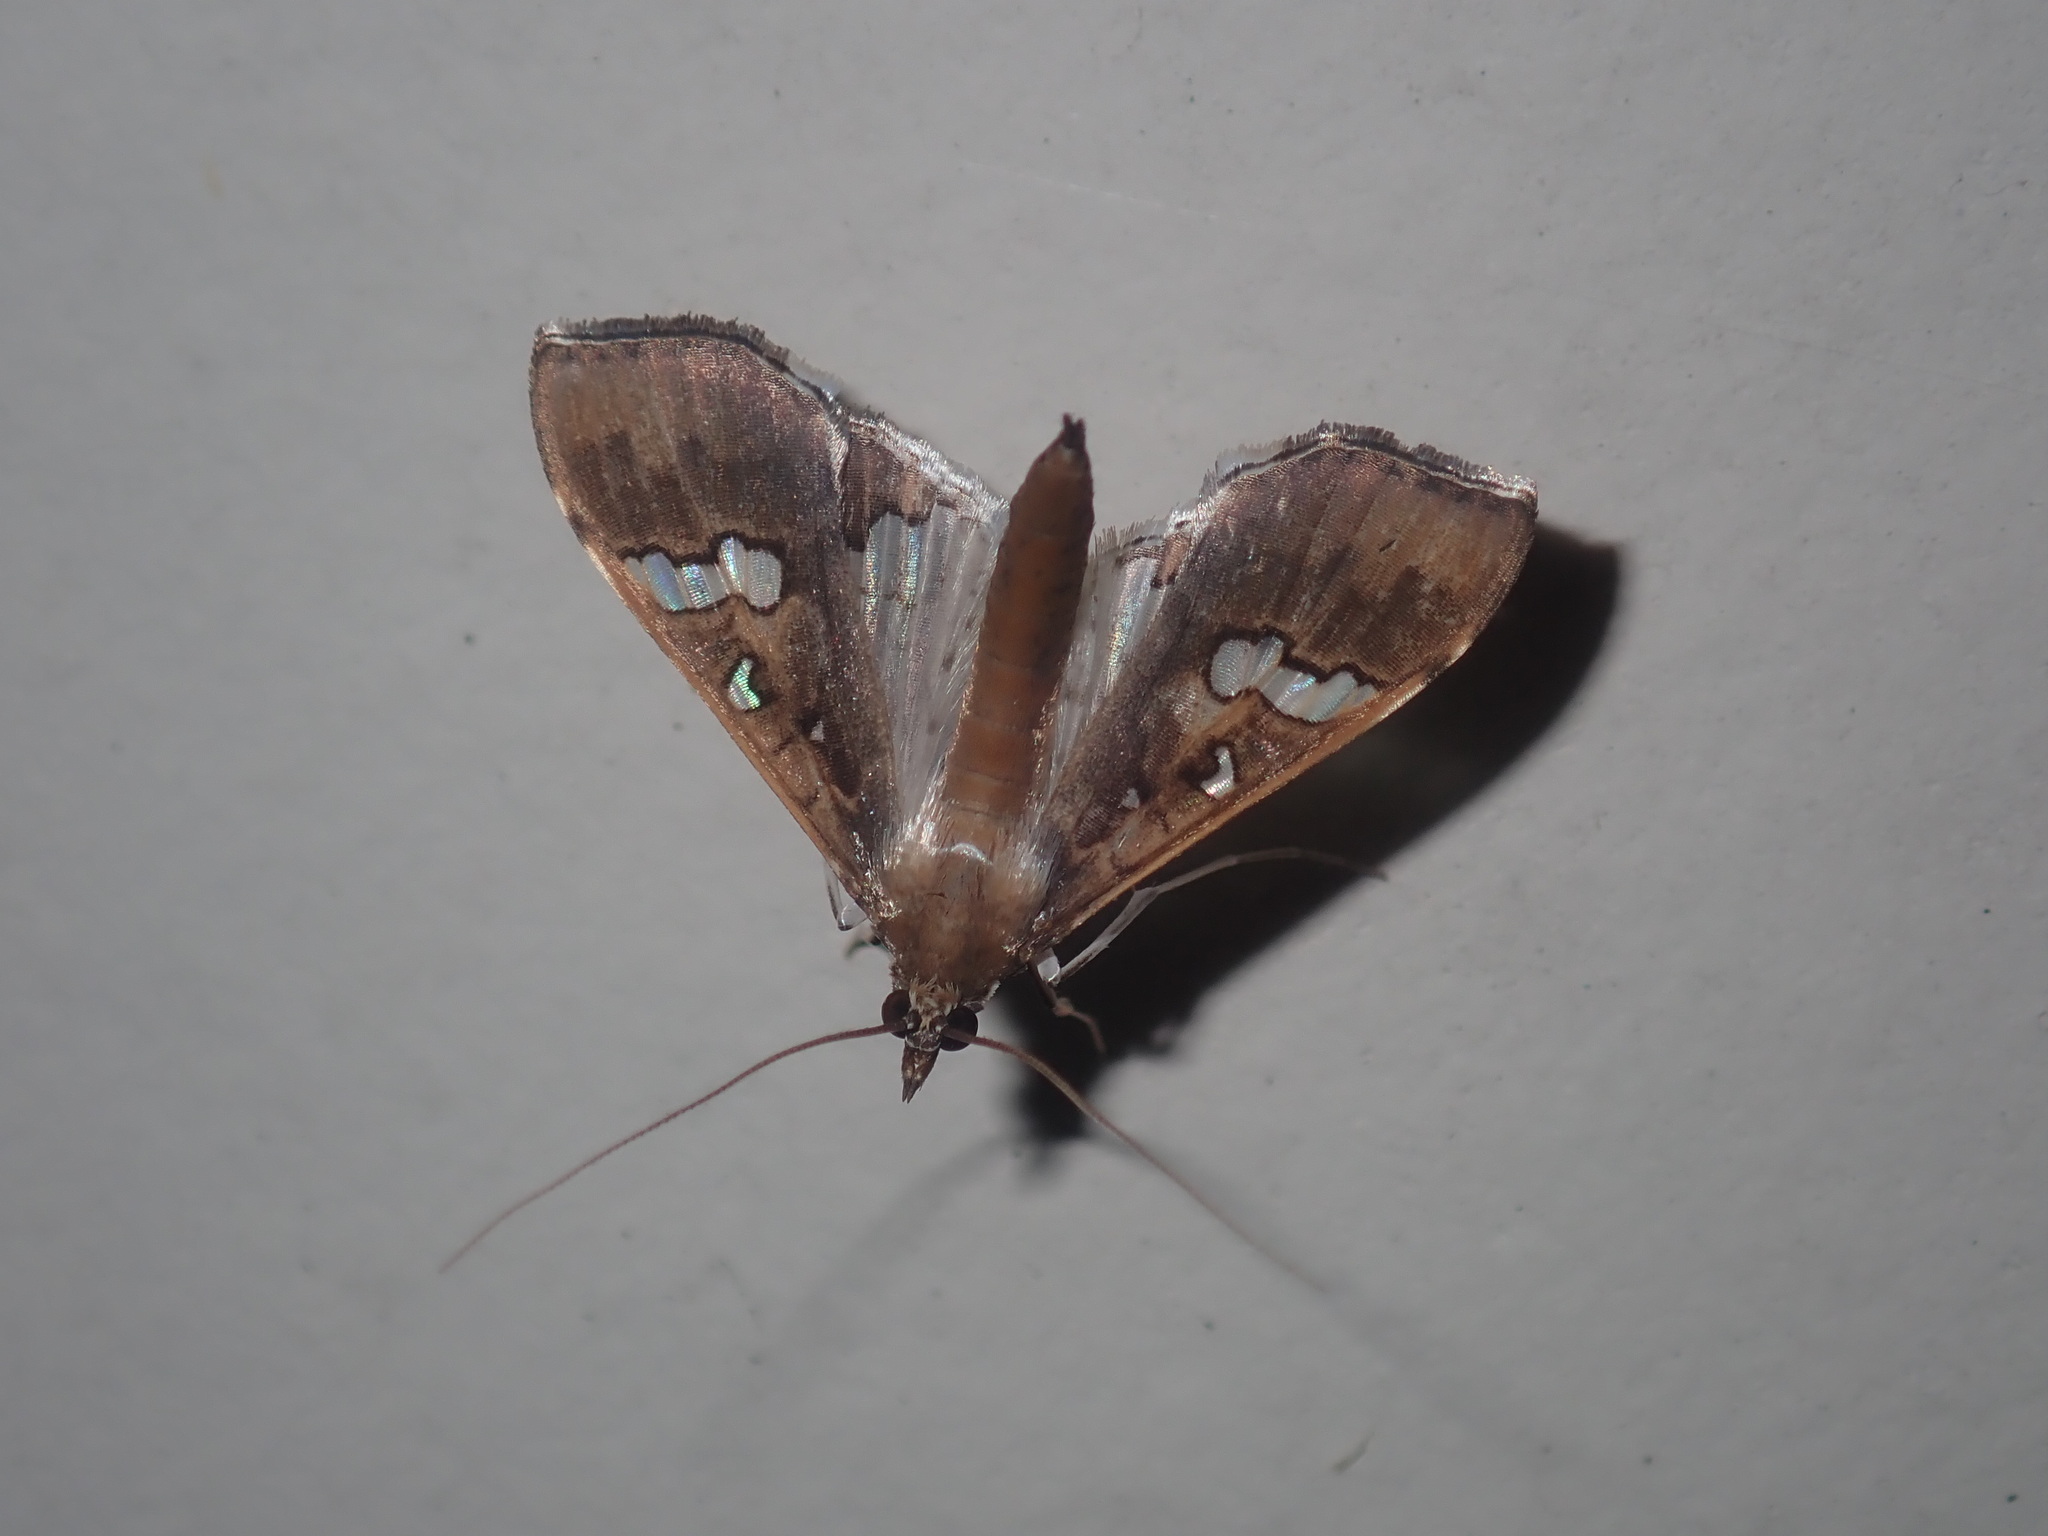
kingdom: Animalia
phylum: Arthropoda
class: Insecta
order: Lepidoptera
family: Crambidae
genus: Maruca
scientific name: Maruca vitrata
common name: Maruca pod borer
